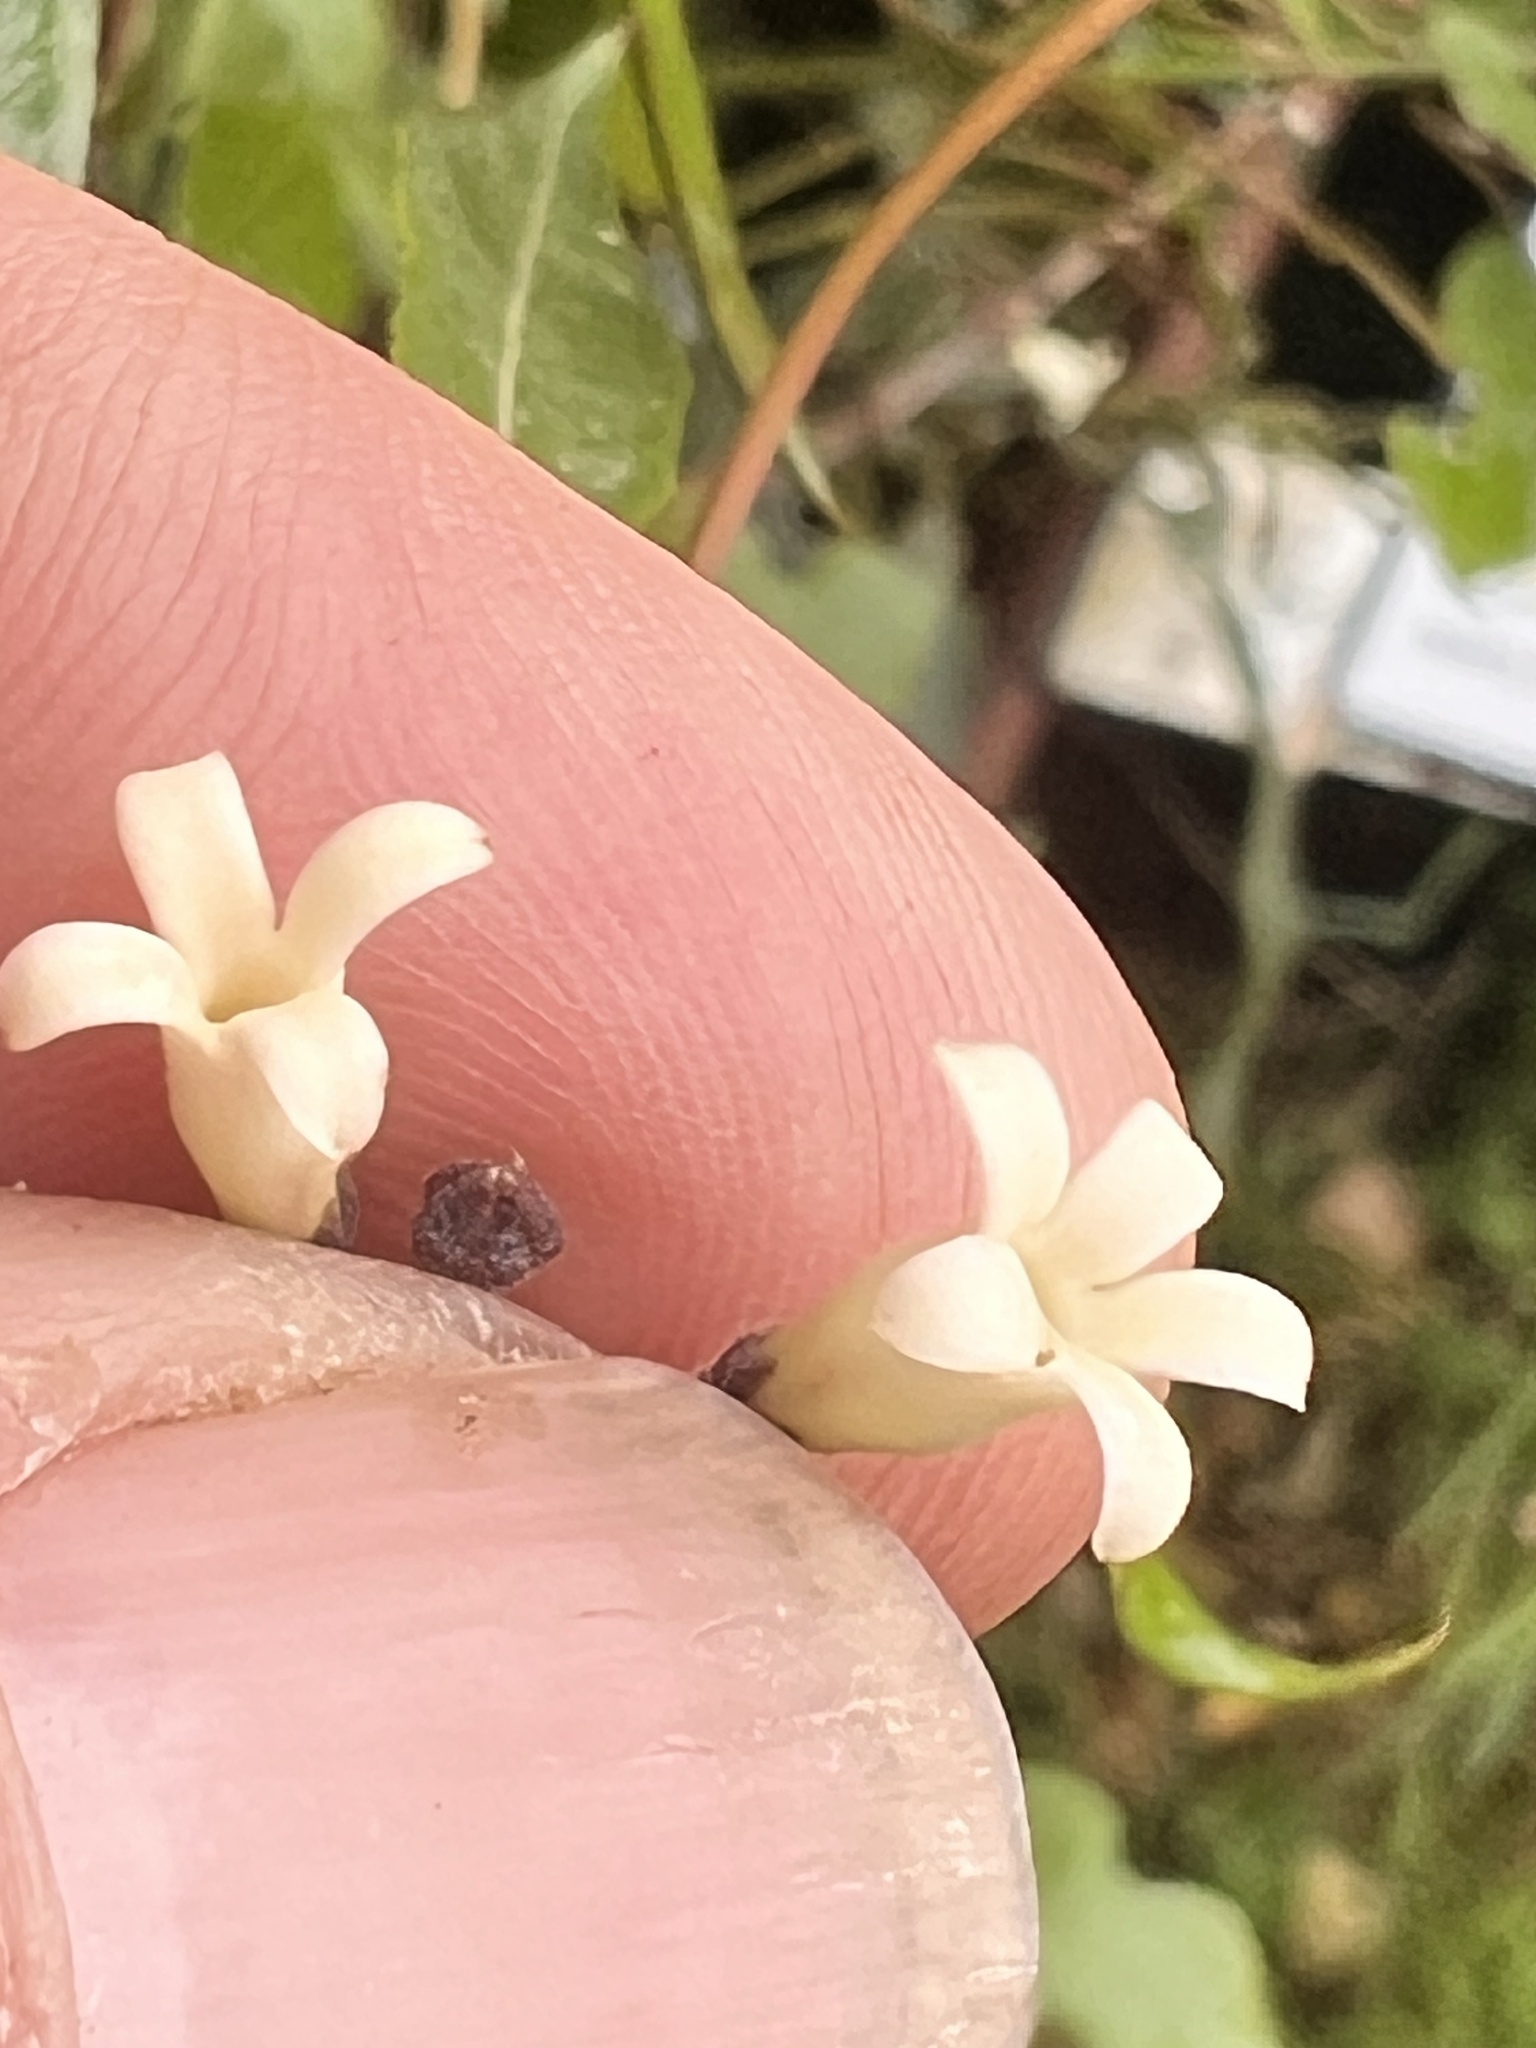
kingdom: Plantae
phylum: Tracheophyta
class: Magnoliopsida
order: Gentianales
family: Apocynaceae
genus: Parsonsia
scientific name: Parsonsia heterophylla
